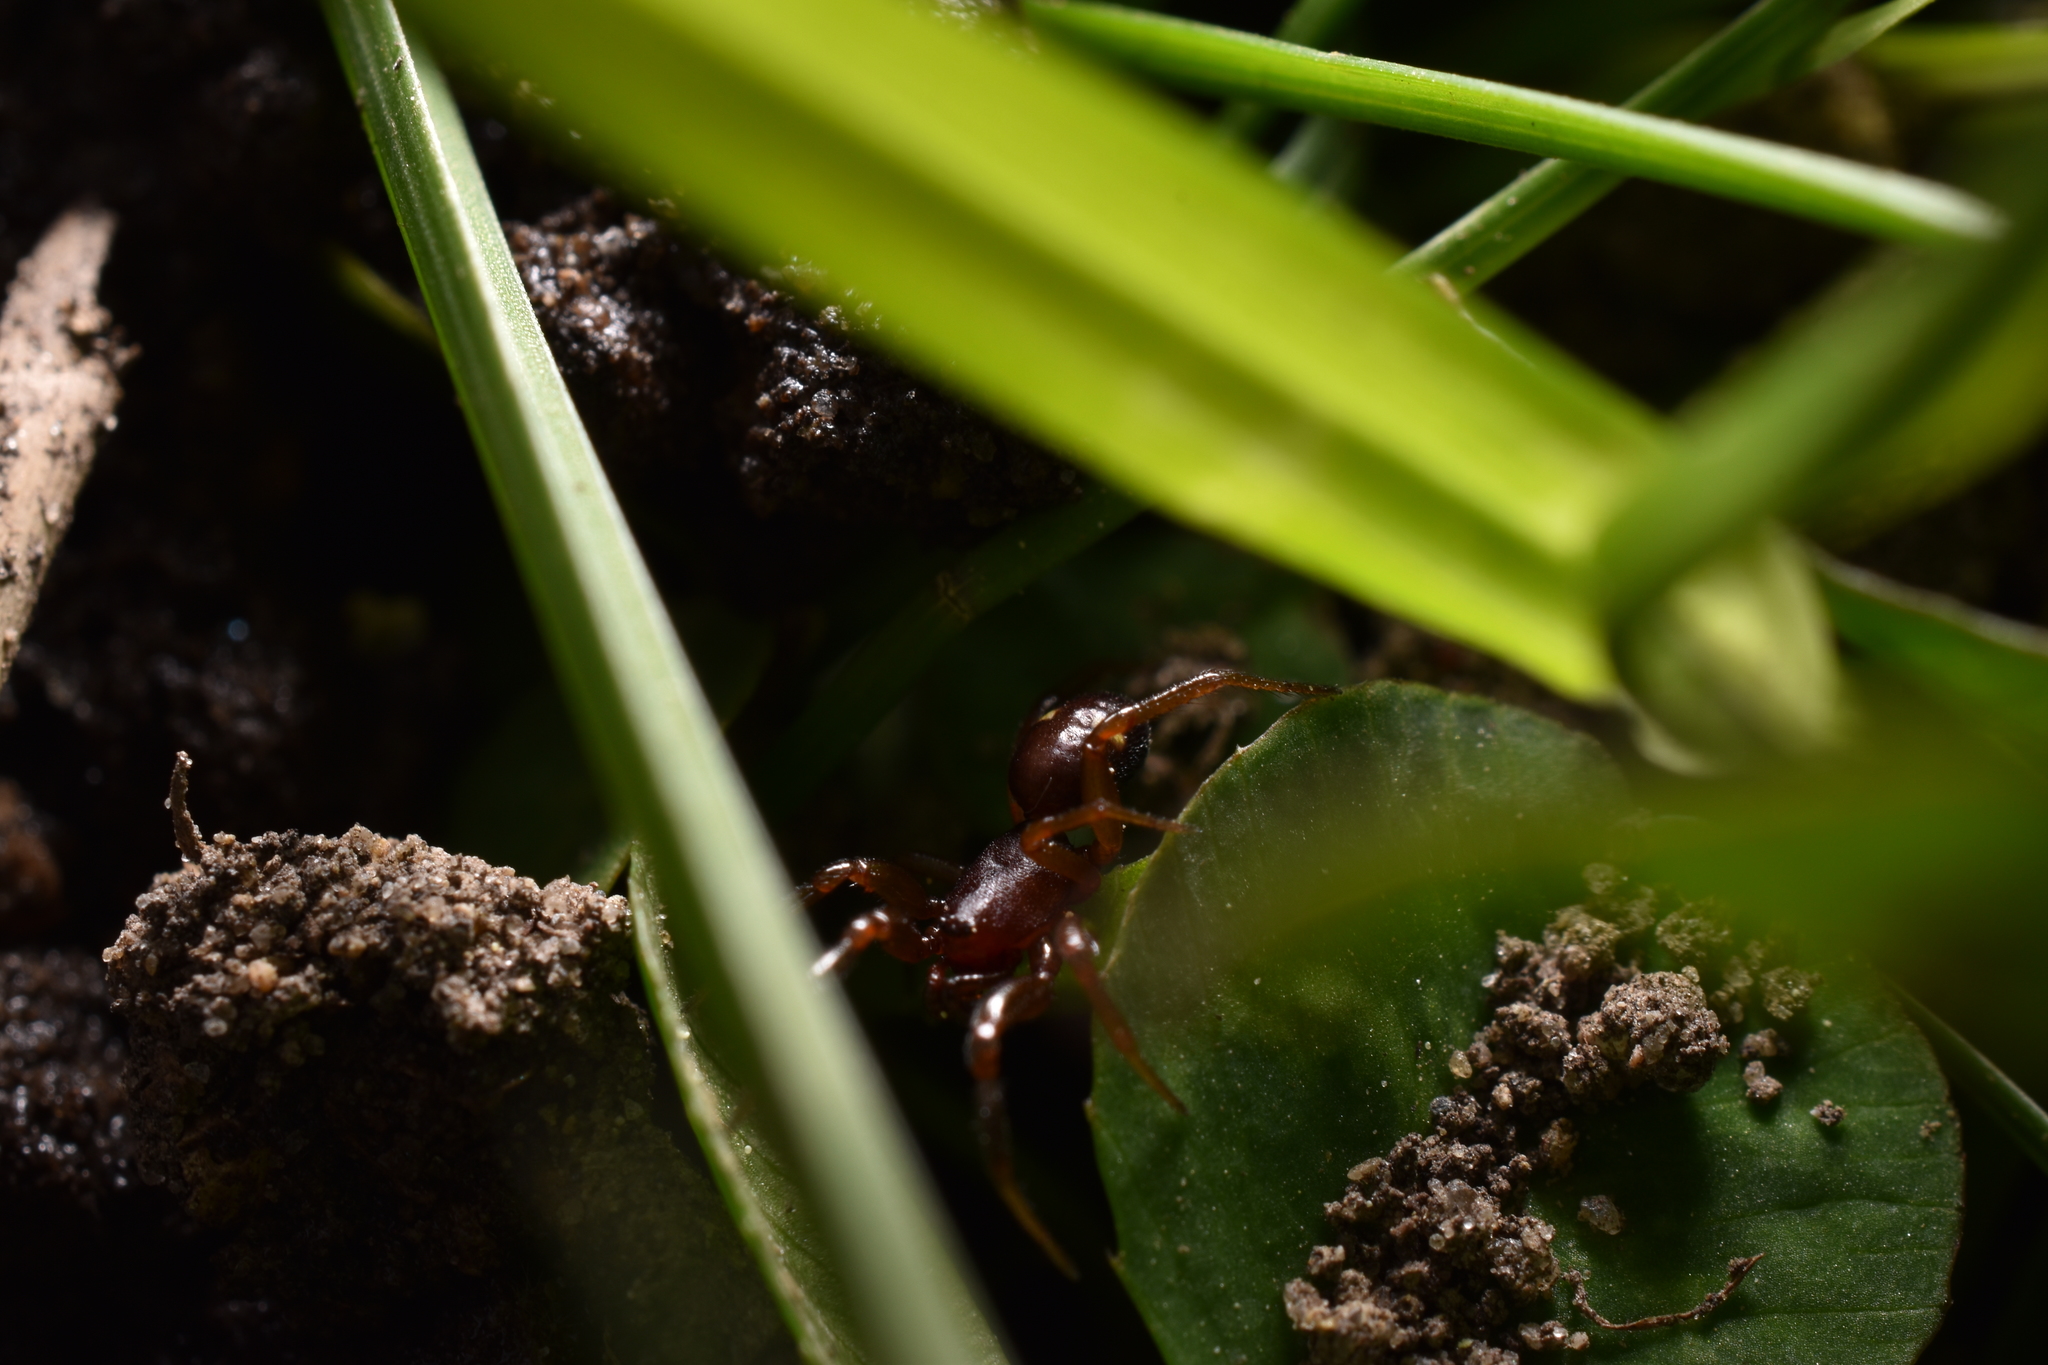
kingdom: Animalia
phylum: Arthropoda
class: Arachnida
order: Araneae
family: Theridiidae
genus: Asagena
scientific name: Asagena americana
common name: Two-spotted cobweb spider
